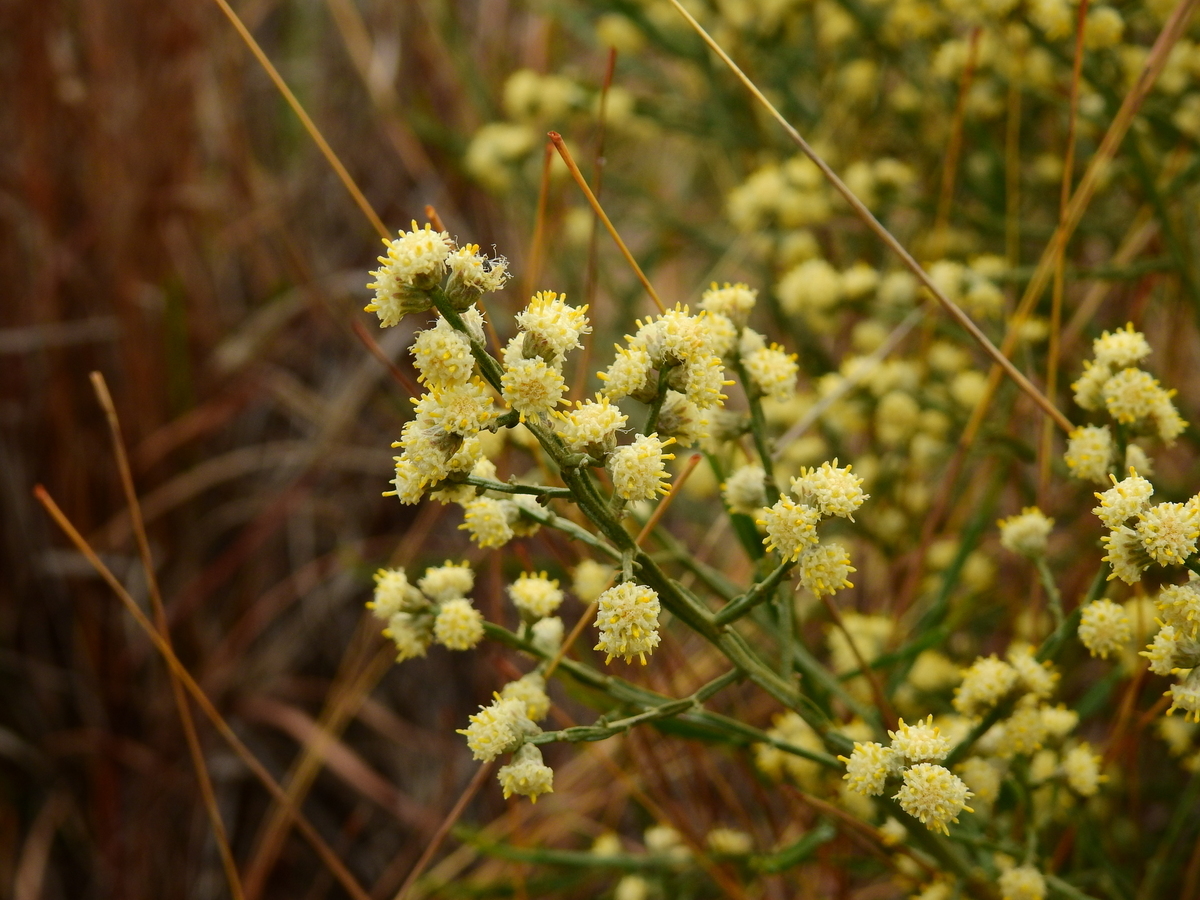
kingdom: Plantae
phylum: Tracheophyta
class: Magnoliopsida
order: Asterales
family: Asteraceae
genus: Baccharis
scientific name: Baccharis articulata
